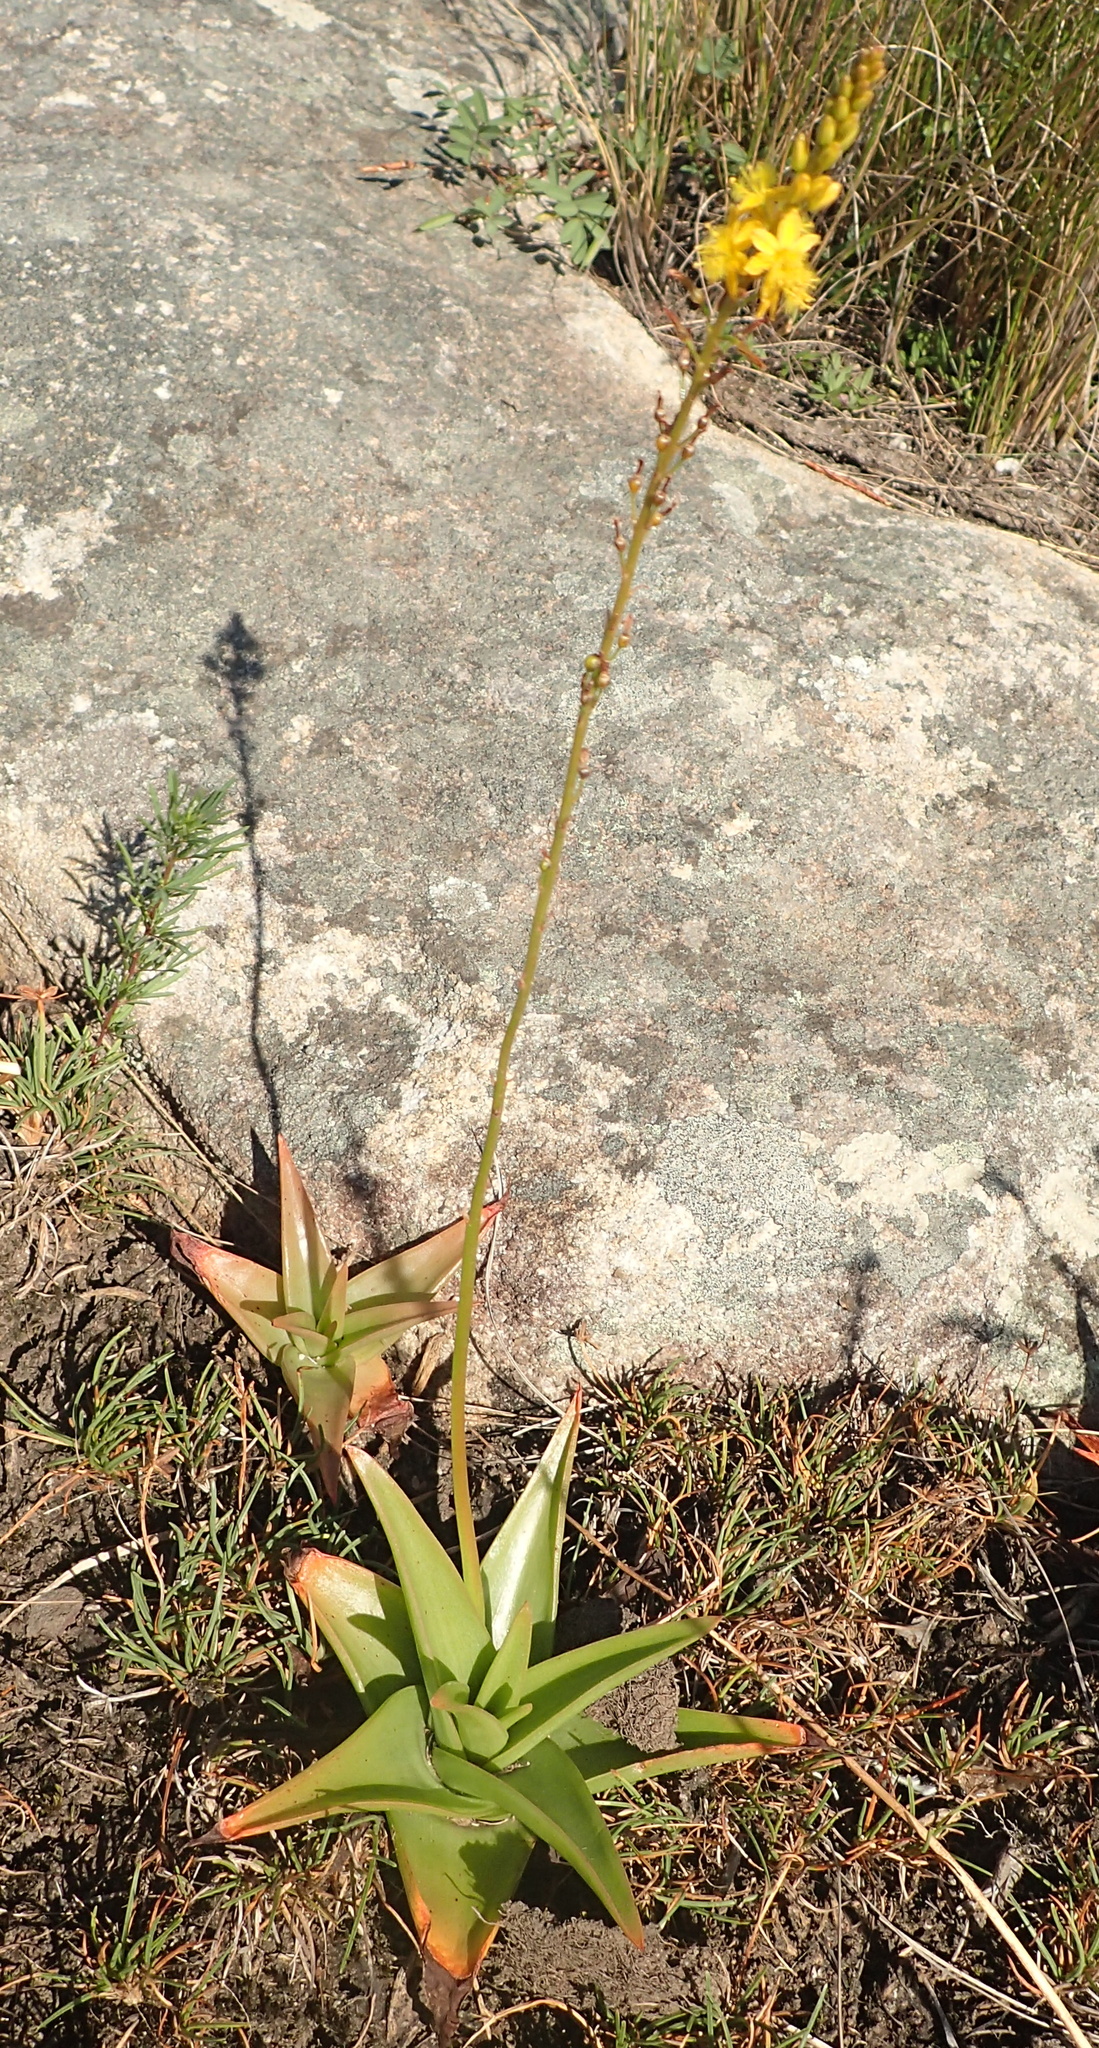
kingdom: Plantae
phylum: Tracheophyta
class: Liliopsida
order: Asparagales
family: Asphodelaceae
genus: Bulbine
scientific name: Bulbine latifolia
